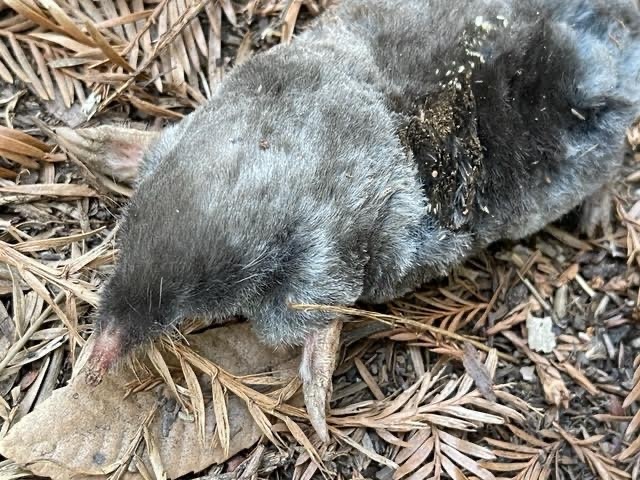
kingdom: Animalia
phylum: Chordata
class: Mammalia
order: Soricomorpha
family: Talpidae
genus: Scapanus
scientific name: Scapanus latimanus
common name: Broad-footed mole
